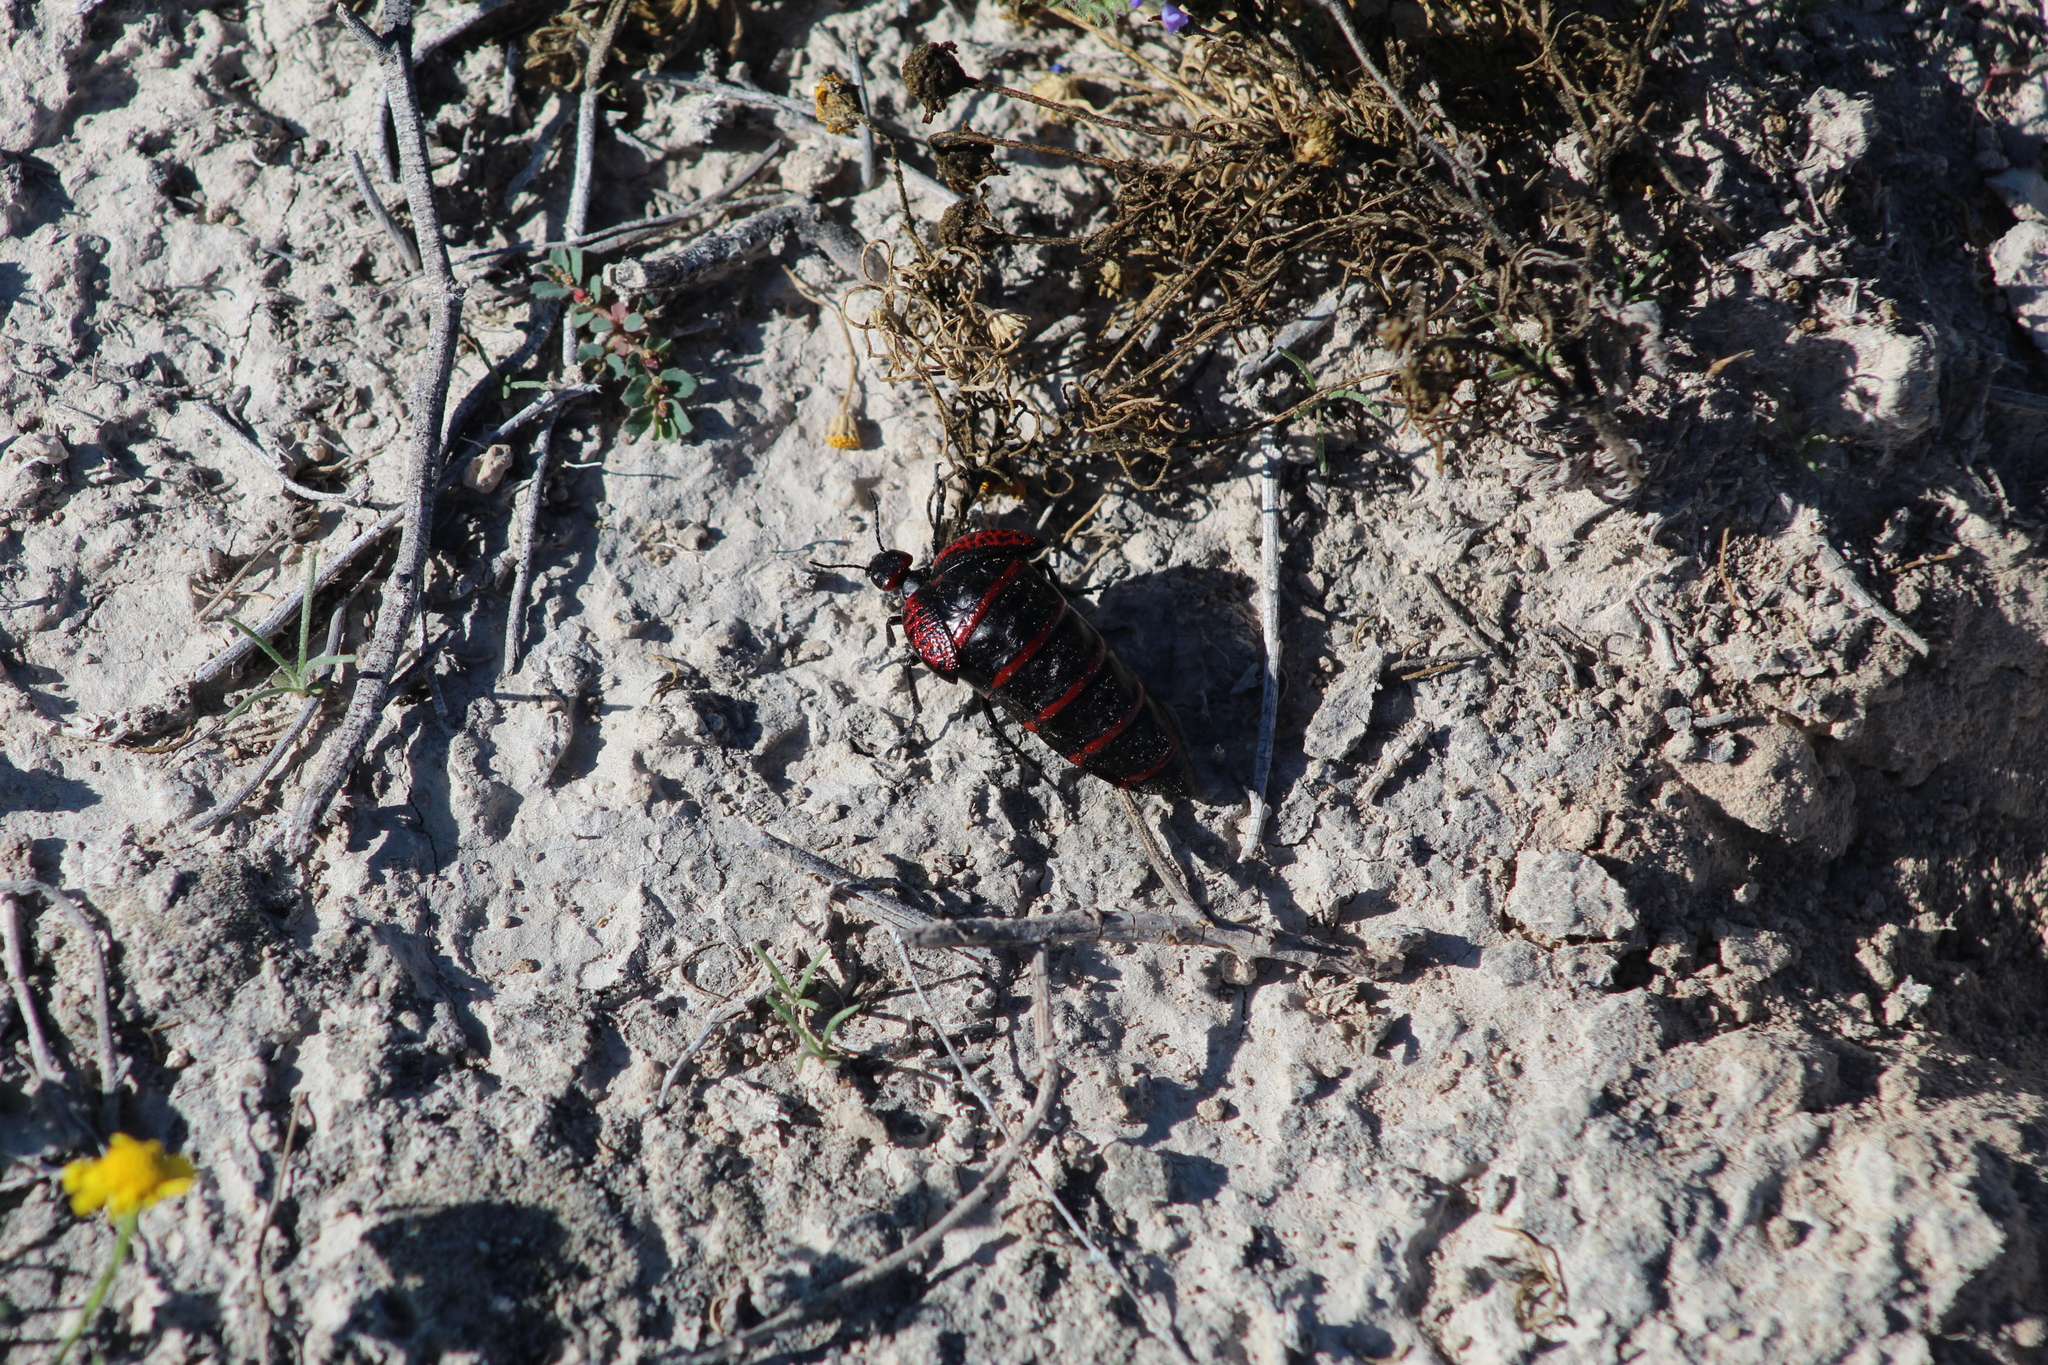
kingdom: Animalia
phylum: Arthropoda
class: Insecta
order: Coleoptera
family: Meloidae
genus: Megetra
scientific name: Megetra cancellata
